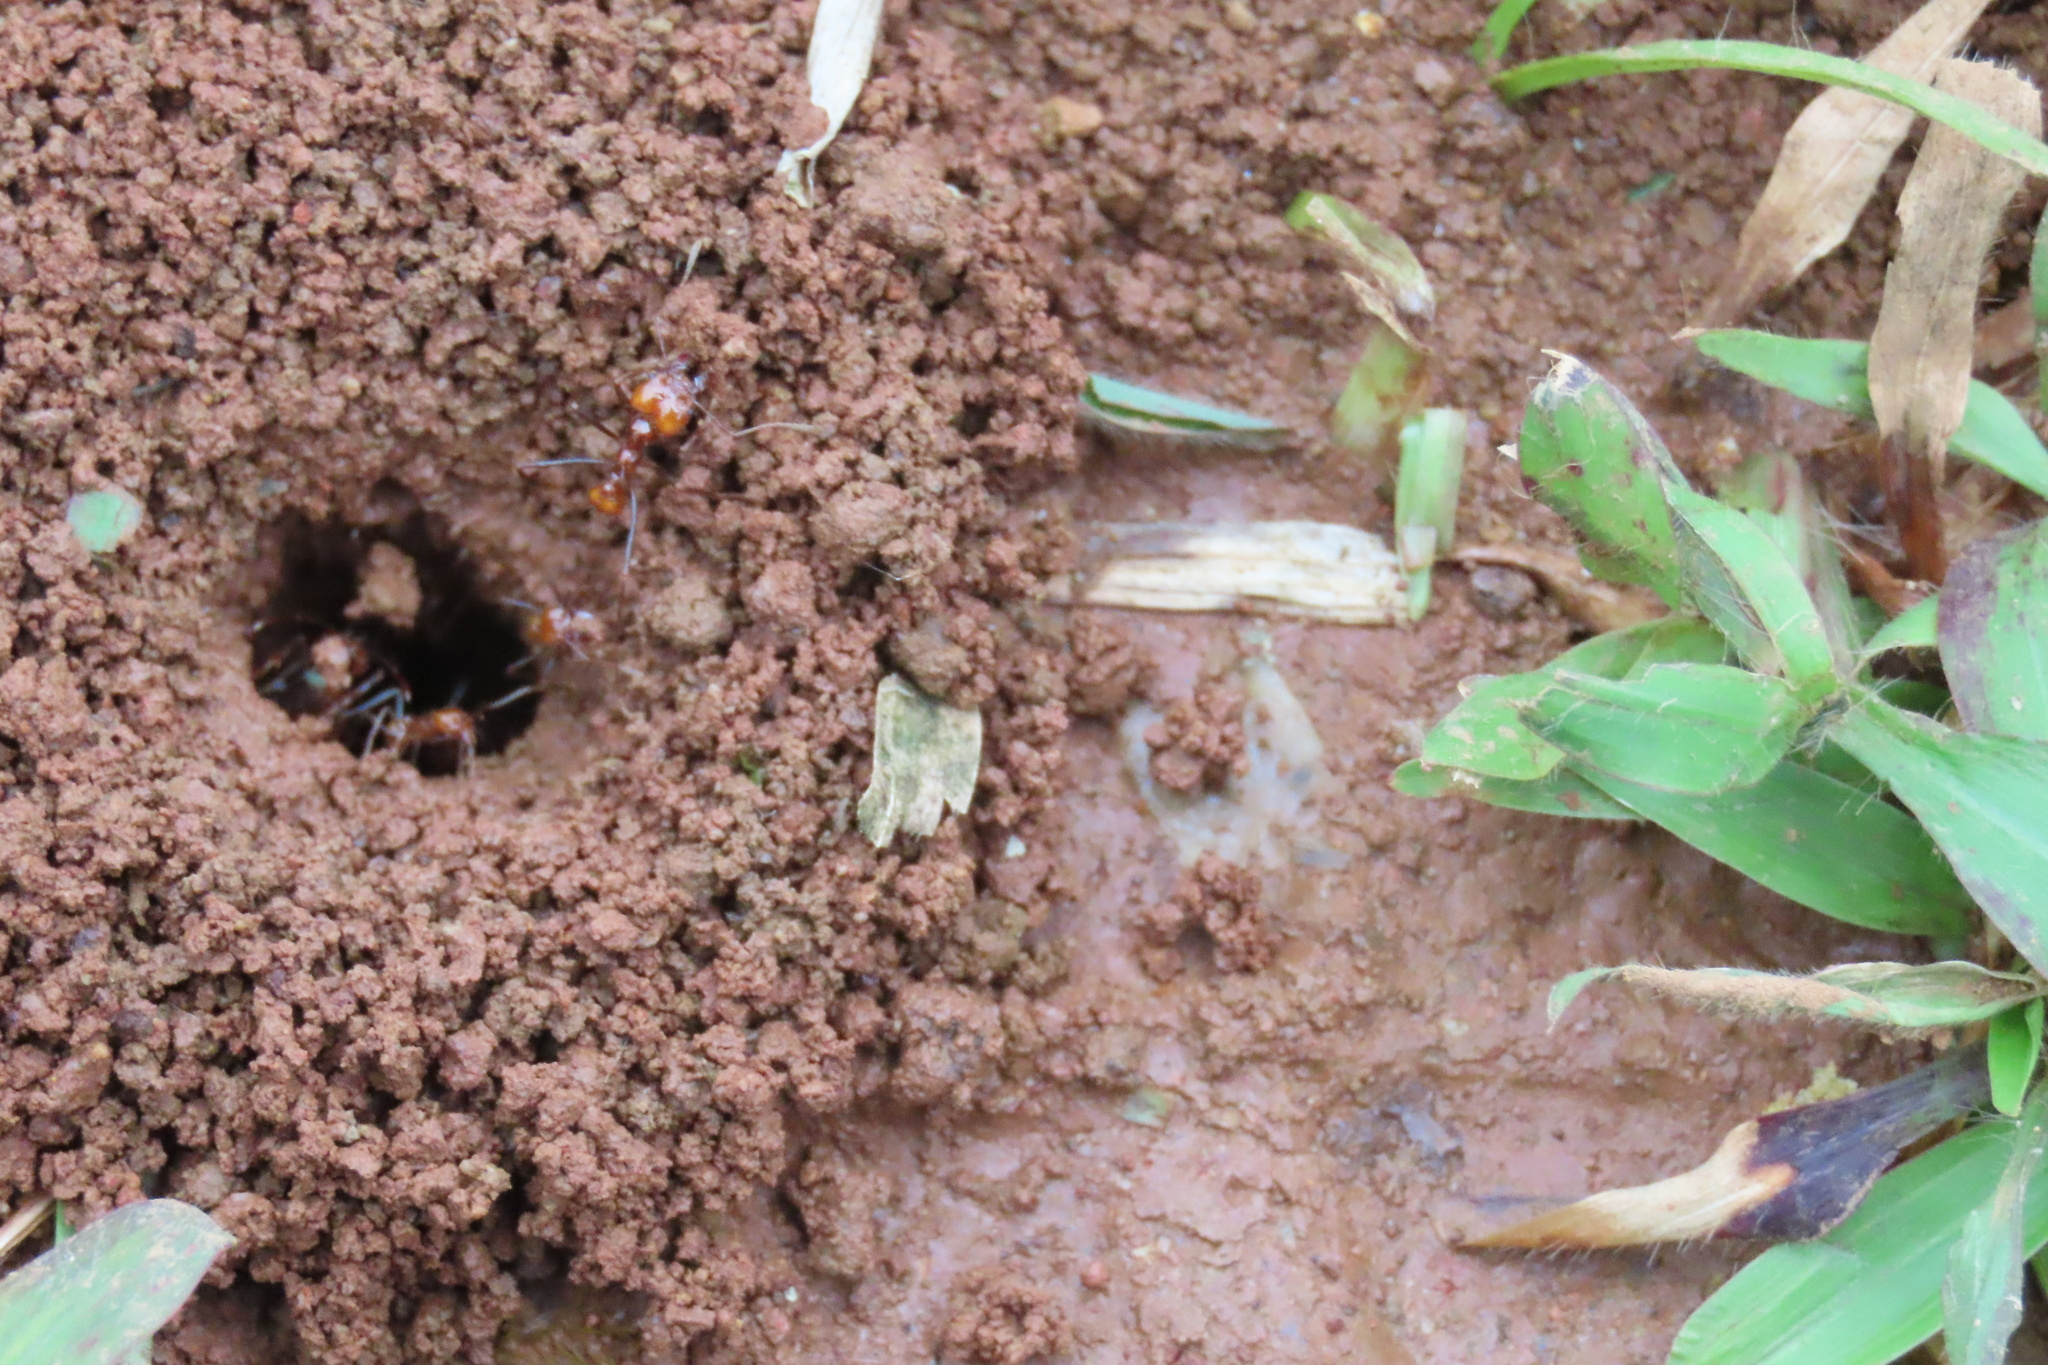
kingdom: Animalia
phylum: Arthropoda
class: Insecta
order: Hymenoptera
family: Formicidae
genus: Atta
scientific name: Atta cephalotes
